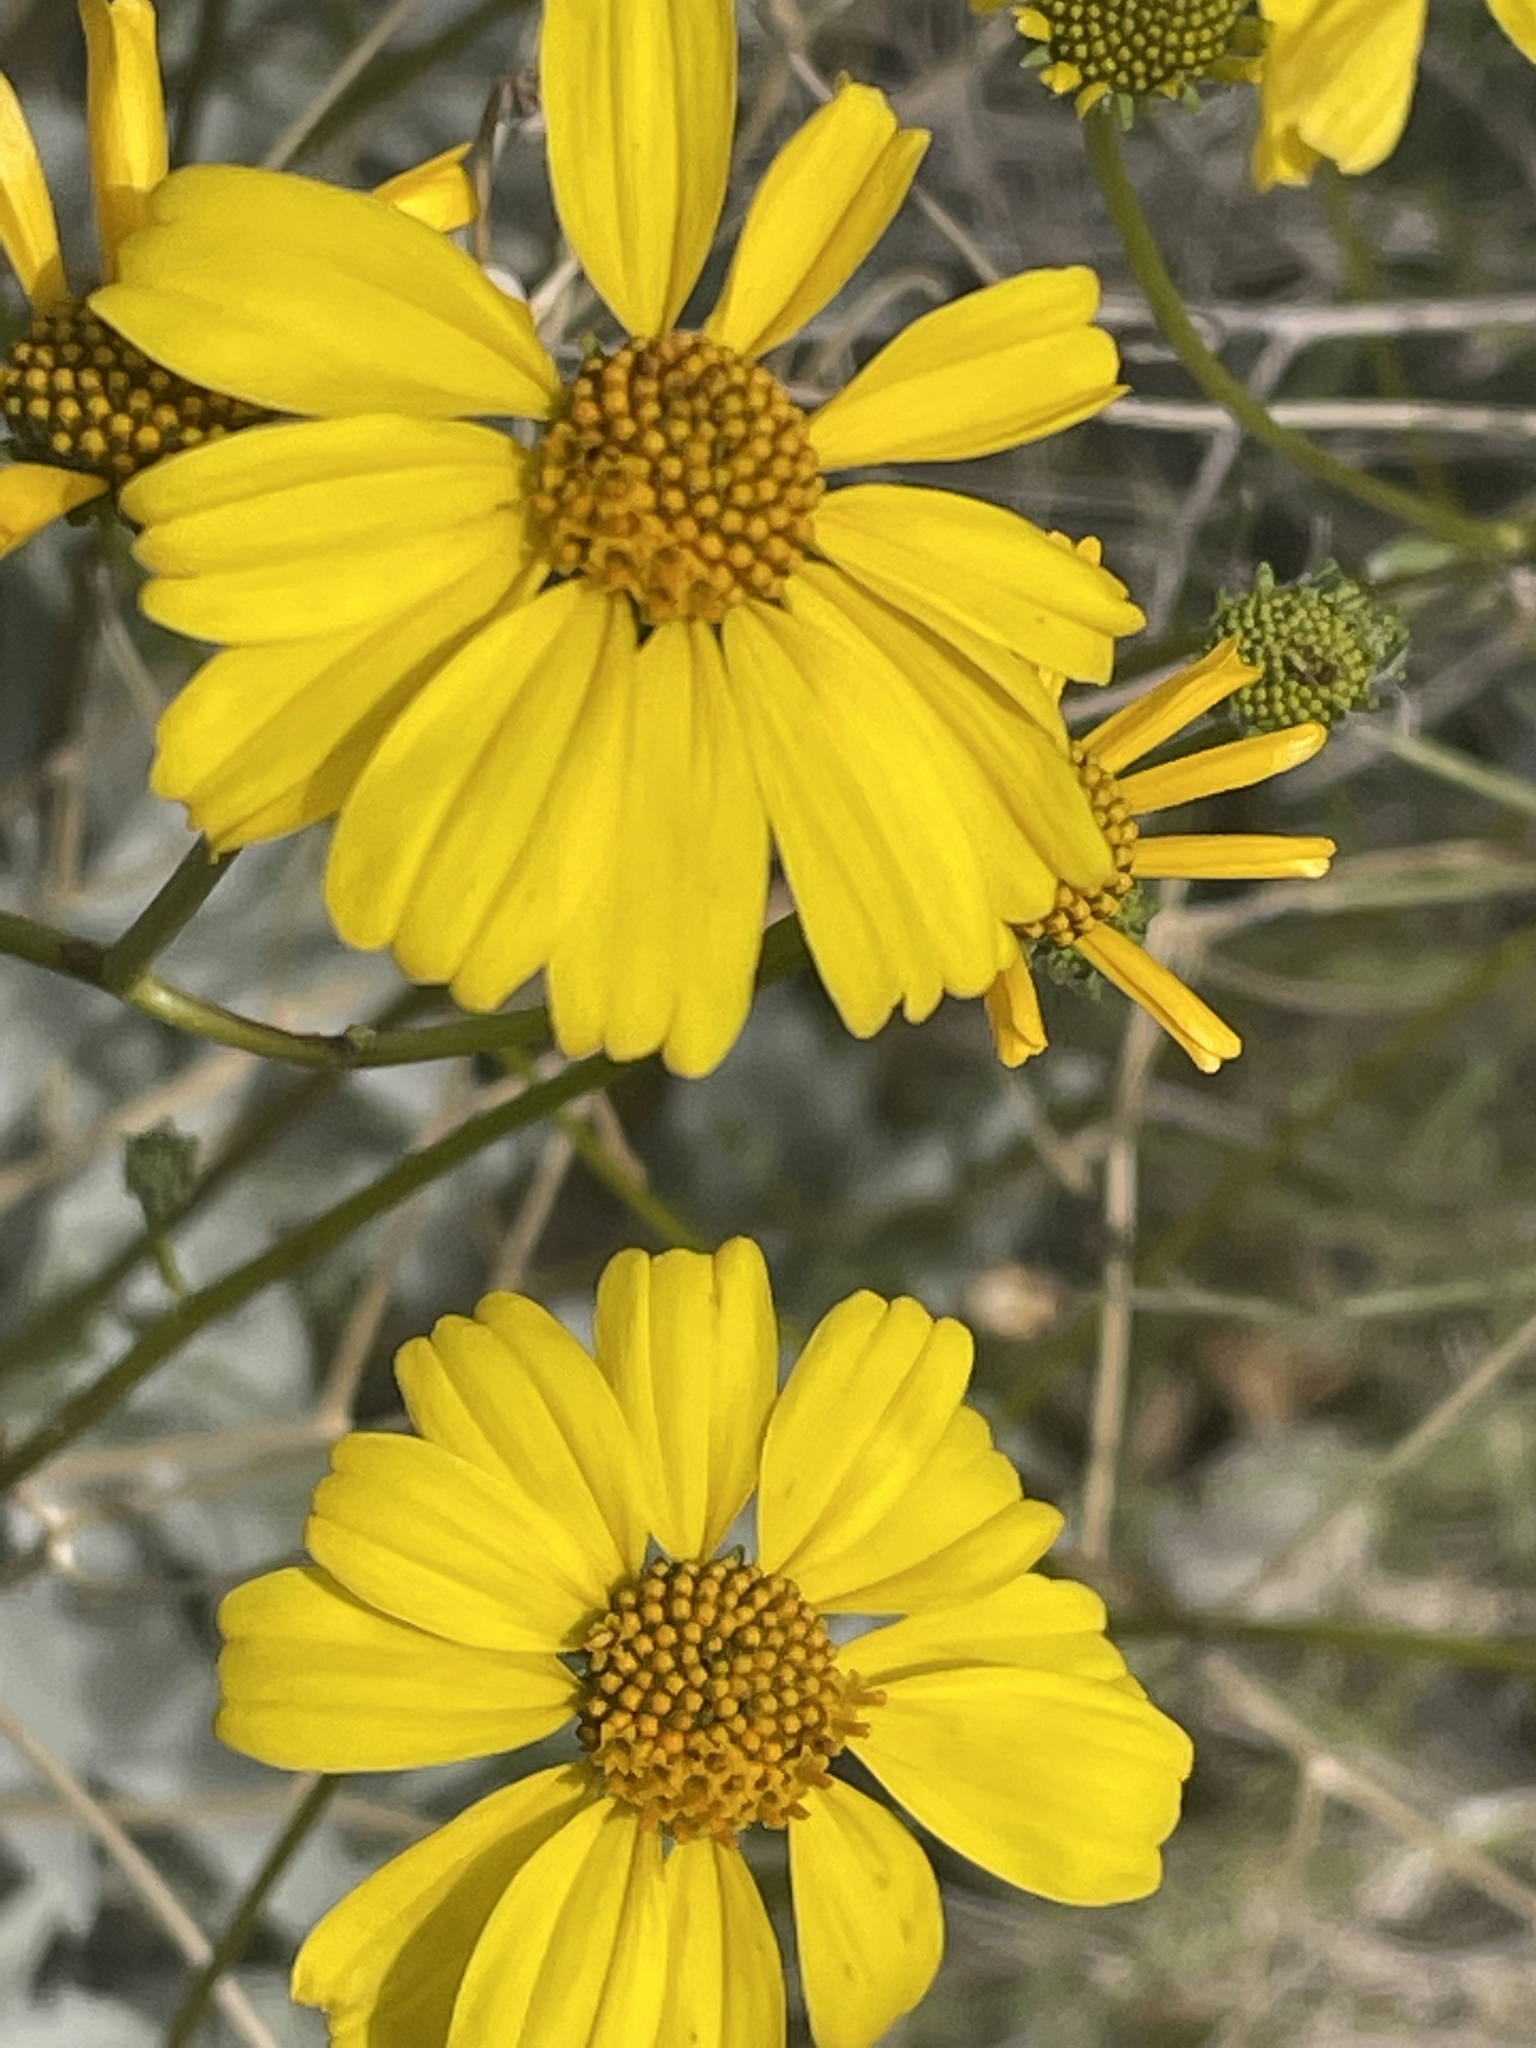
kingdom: Plantae
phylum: Tracheophyta
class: Magnoliopsida
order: Asterales
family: Asteraceae
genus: Encelia
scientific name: Encelia farinosa
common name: Brittlebush
